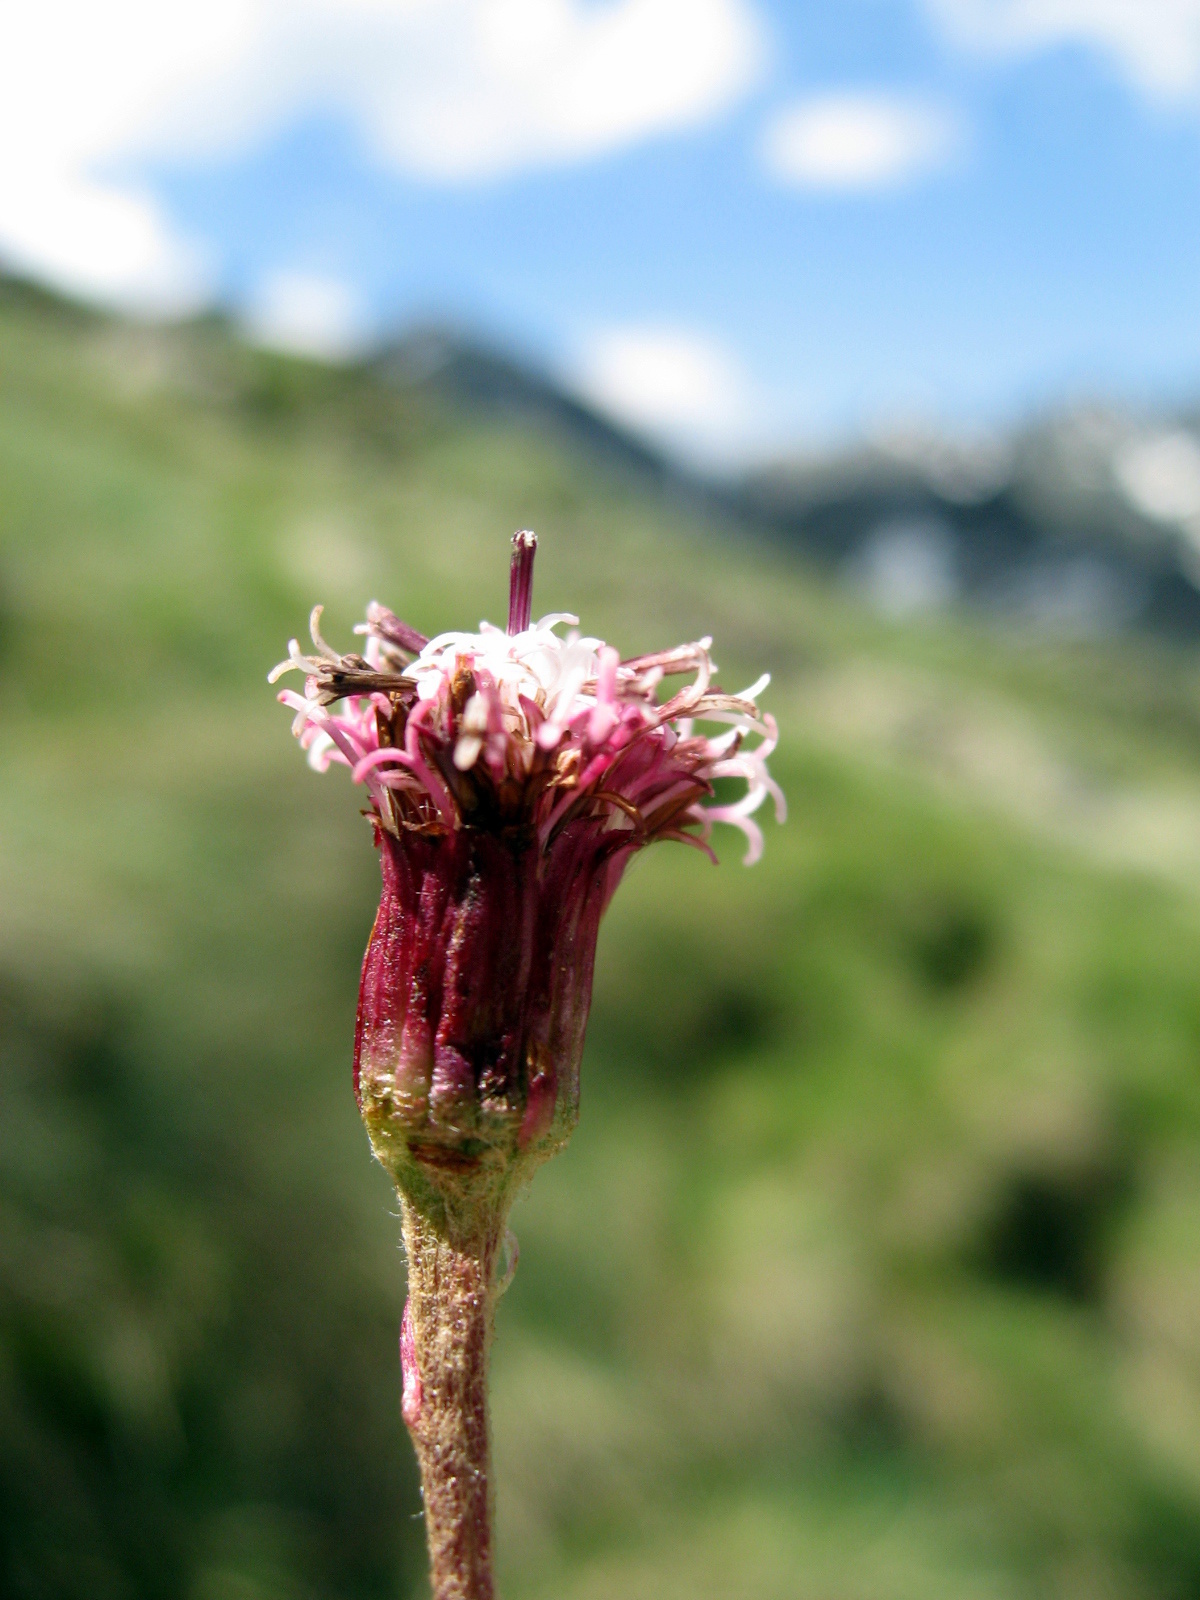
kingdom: Plantae
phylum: Tracheophyta
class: Magnoliopsida
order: Asterales
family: Asteraceae
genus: Homogyne
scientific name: Homogyne alpina
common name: Purple colt's-foot
